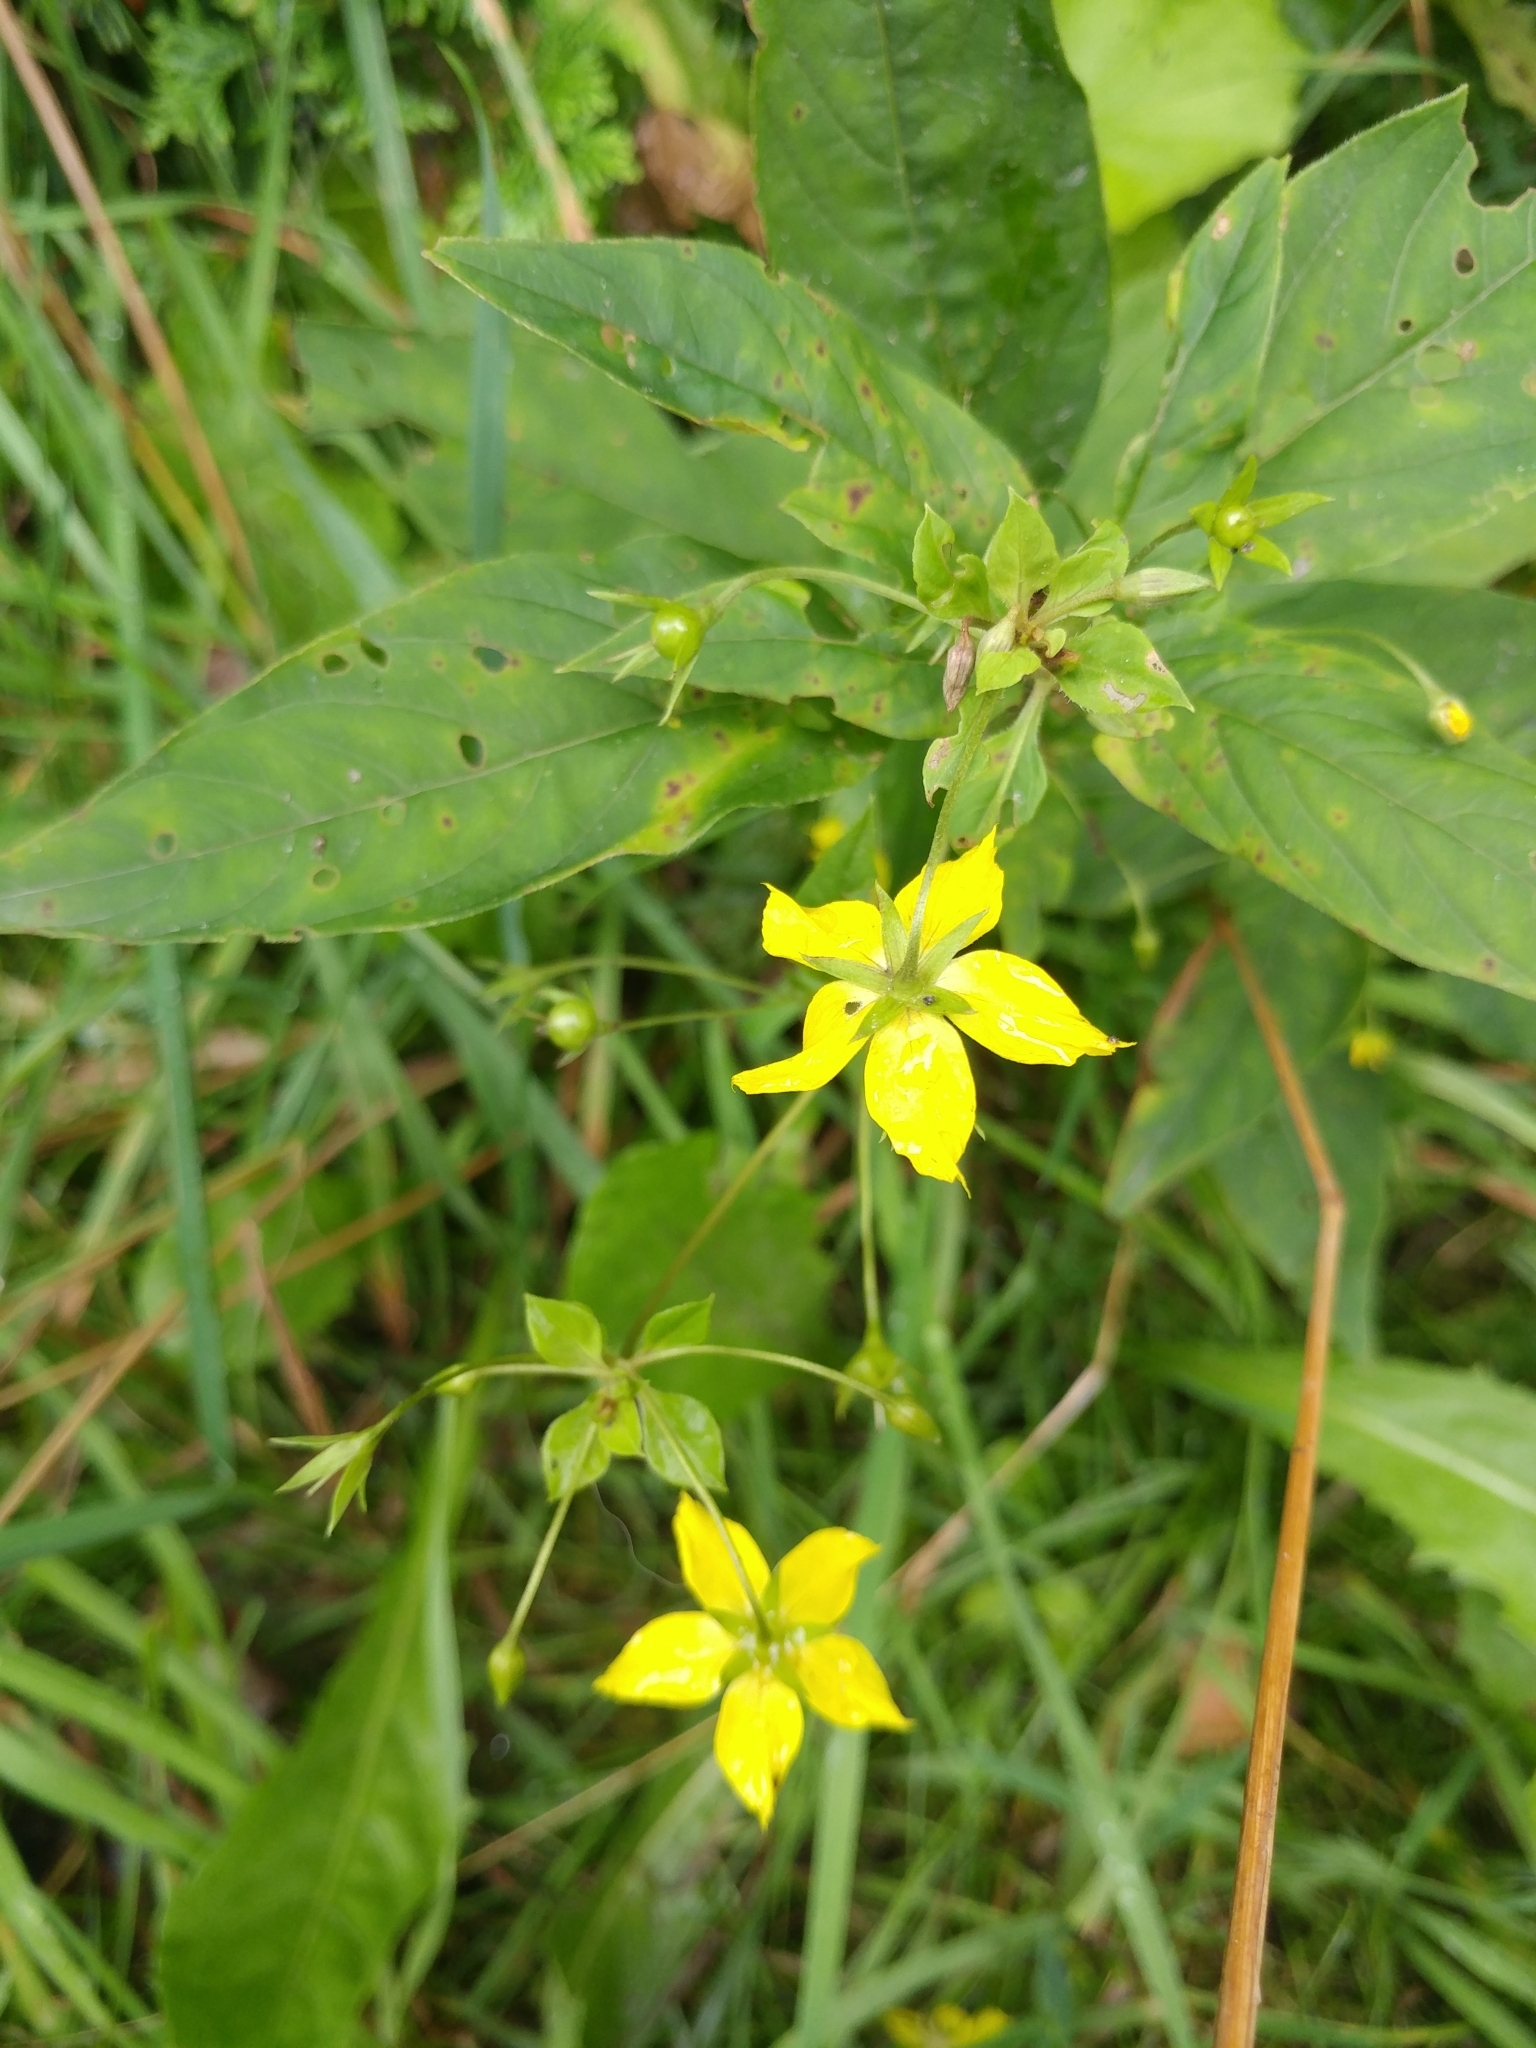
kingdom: Plantae
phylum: Tracheophyta
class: Magnoliopsida
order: Ericales
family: Primulaceae
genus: Lysimachia
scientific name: Lysimachia ciliata
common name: Fringed loosestrife
